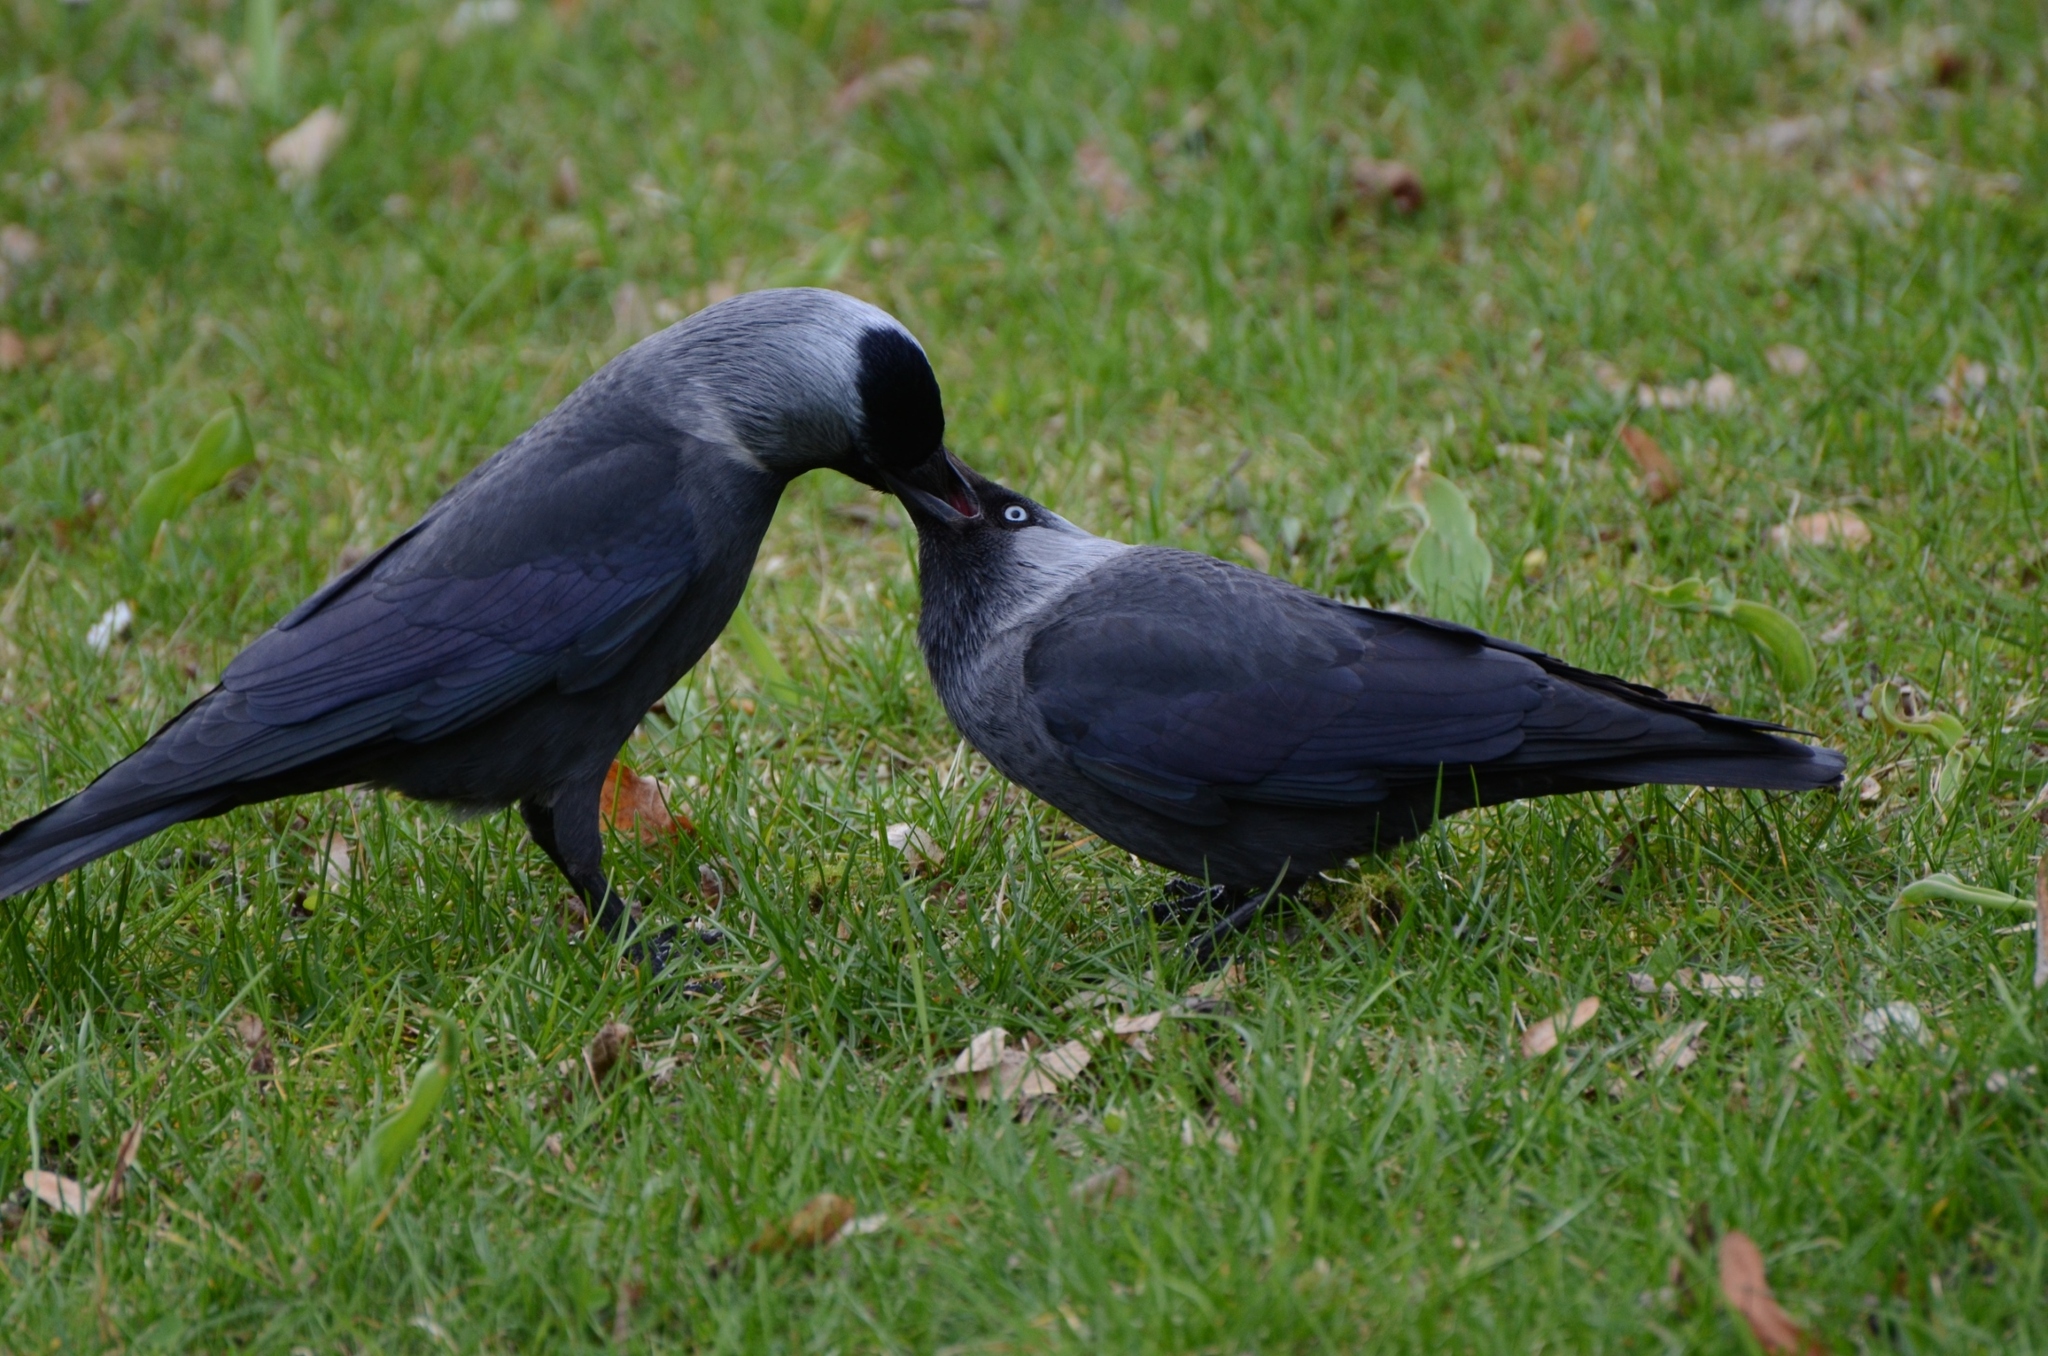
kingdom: Animalia
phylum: Chordata
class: Aves
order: Passeriformes
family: Corvidae
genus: Coloeus
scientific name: Coloeus monedula
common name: Western jackdaw
